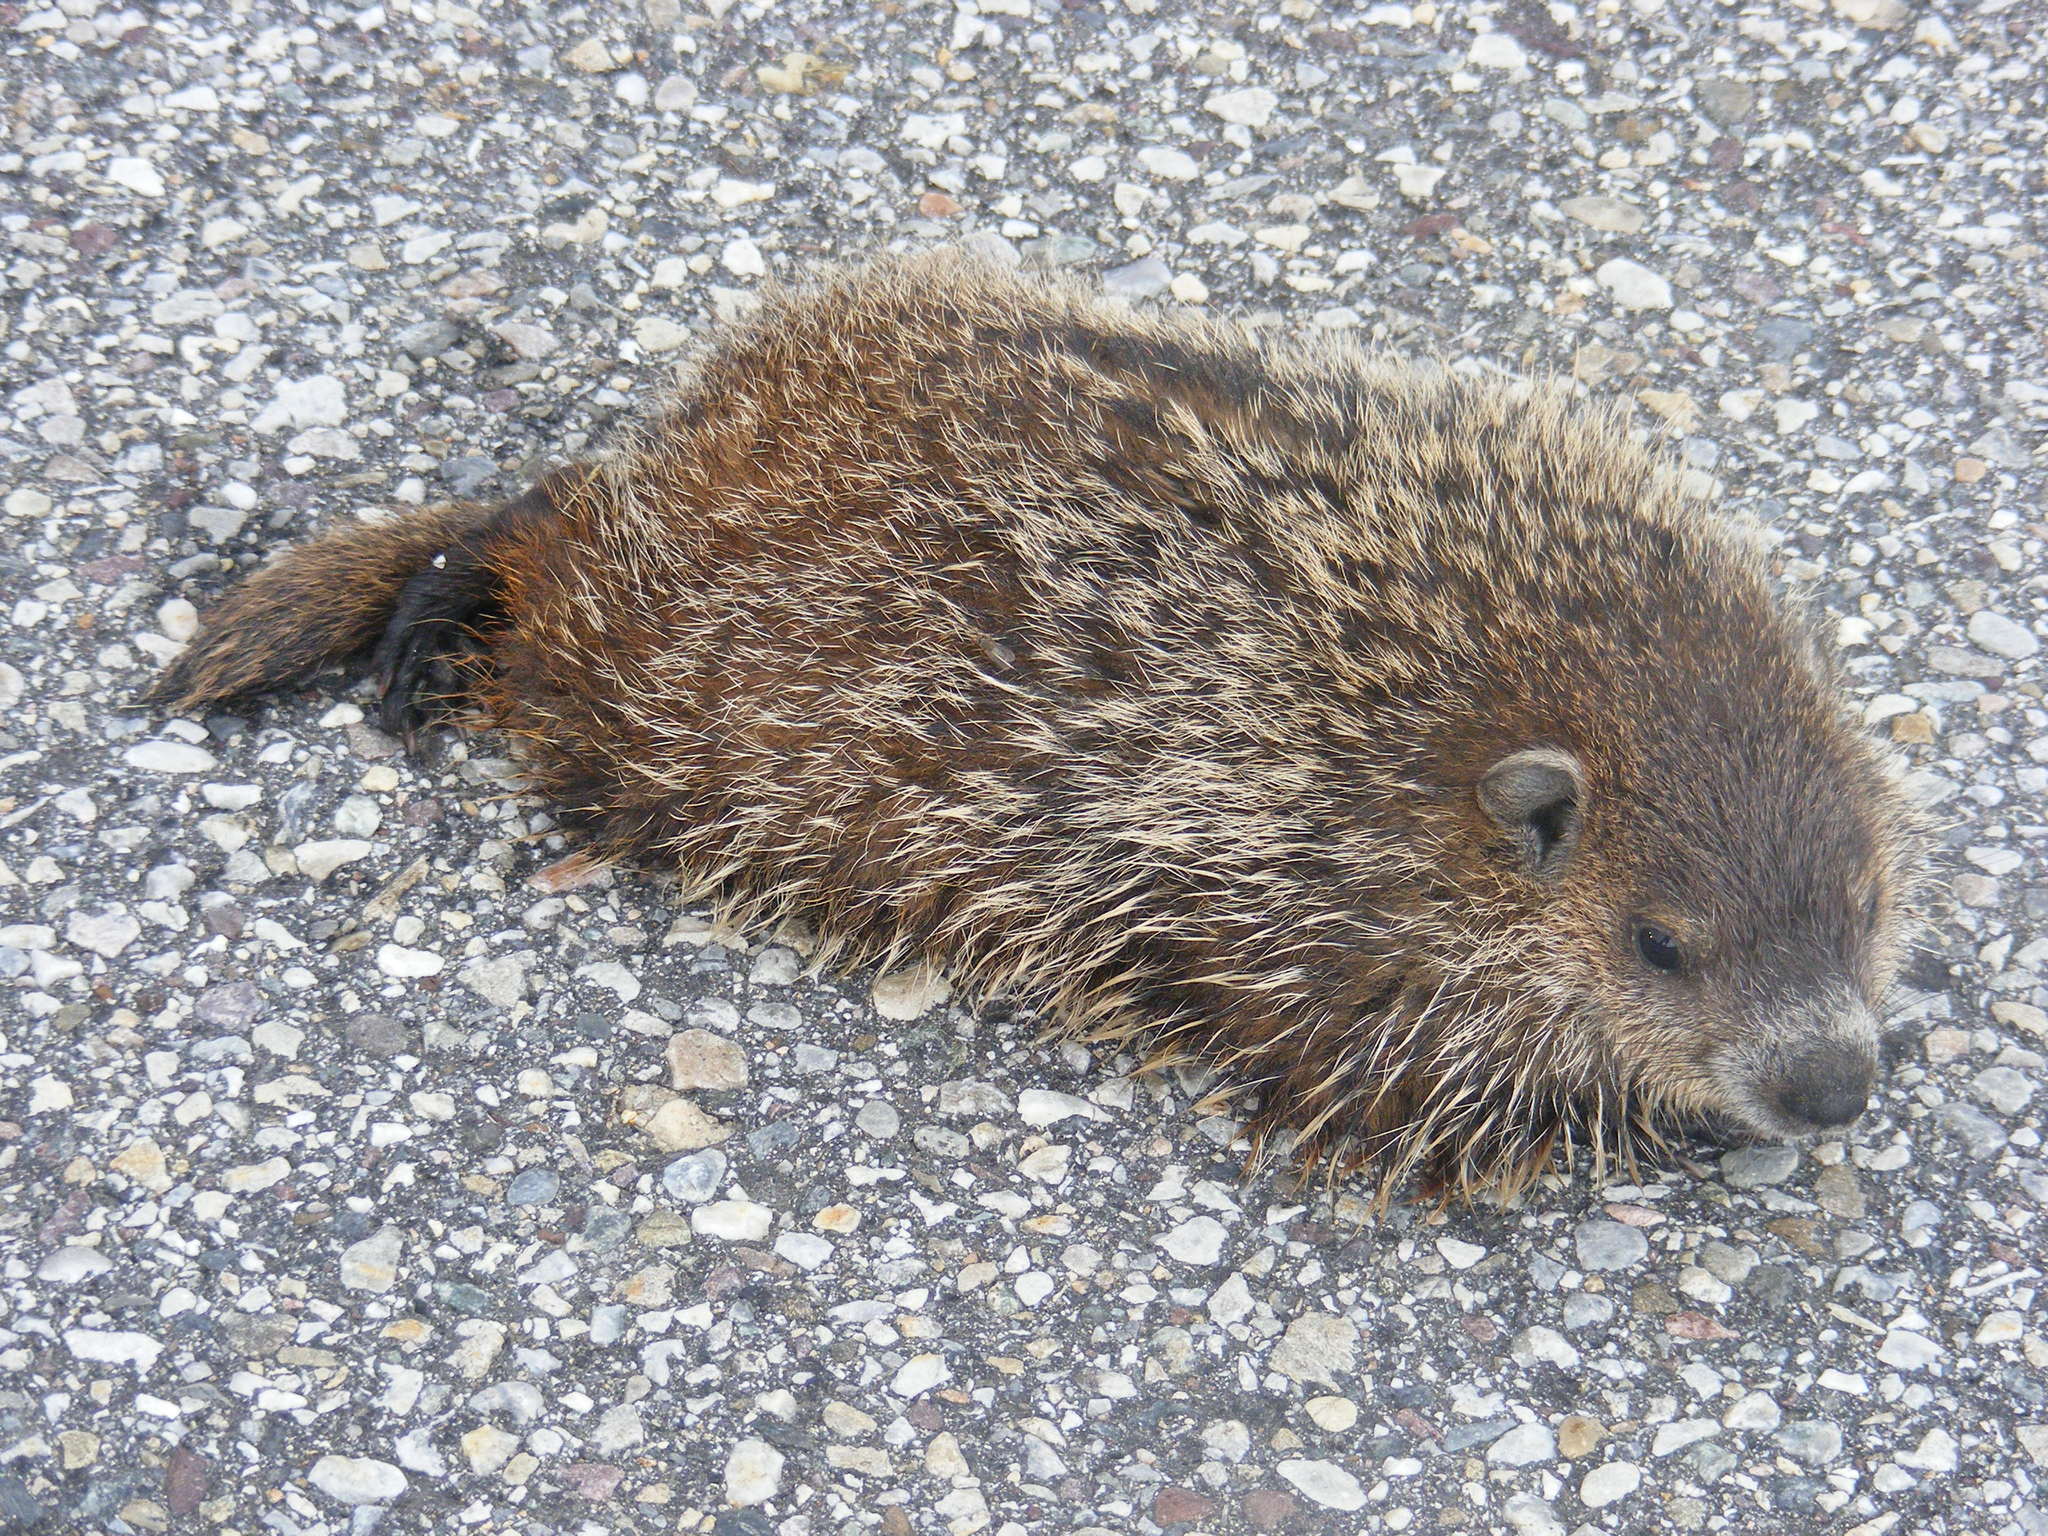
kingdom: Animalia
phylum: Chordata
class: Mammalia
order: Rodentia
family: Sciuridae
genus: Marmota
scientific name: Marmota monax
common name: Groundhog
